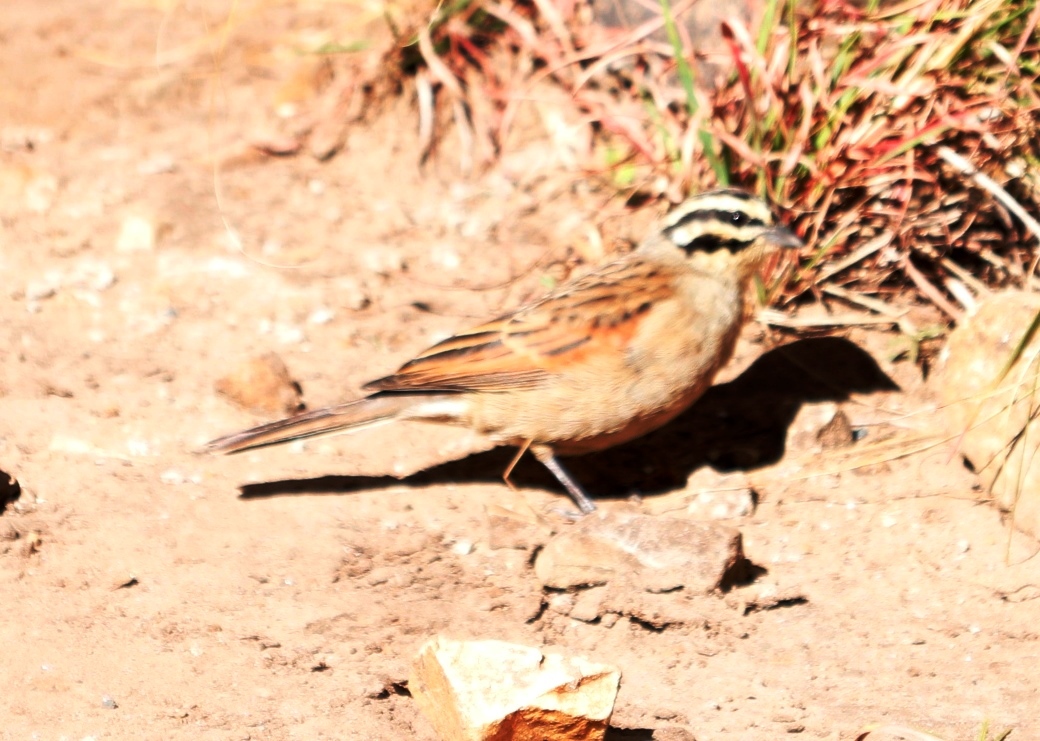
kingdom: Animalia
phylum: Chordata
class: Aves
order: Passeriformes
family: Emberizidae
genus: Emberiza
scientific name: Emberiza capensis
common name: Cape bunting
